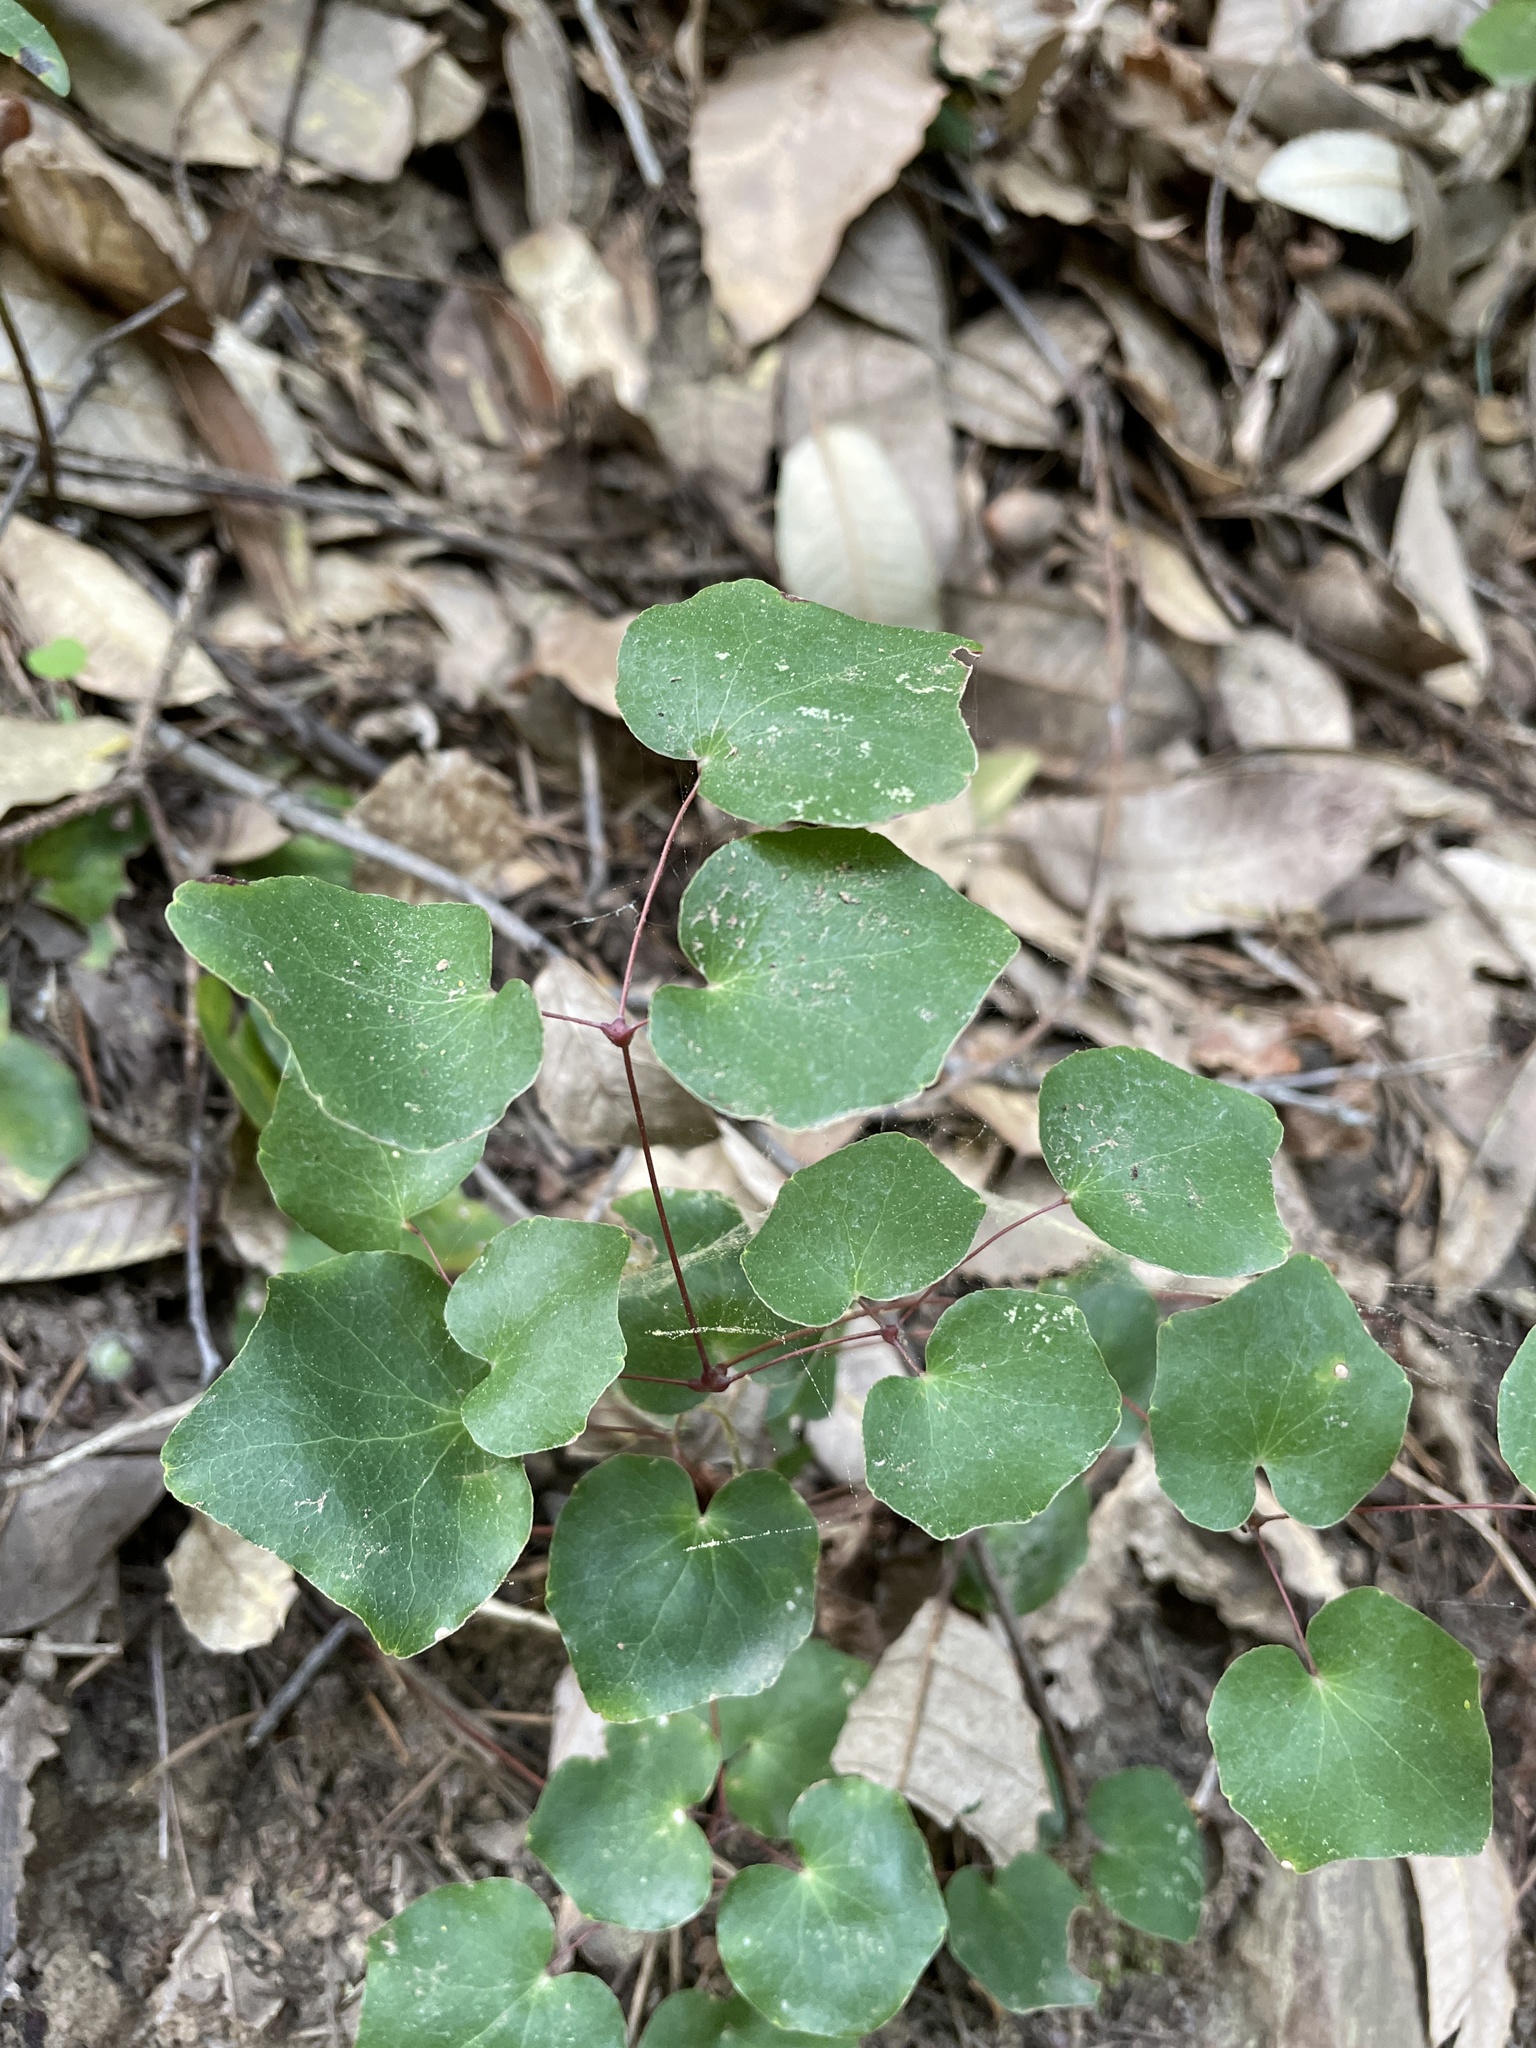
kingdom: Plantae
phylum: Tracheophyta
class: Magnoliopsida
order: Ranunculales
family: Berberidaceae
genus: Vancouveria
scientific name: Vancouveria planipetala
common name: Redwood-ivy
